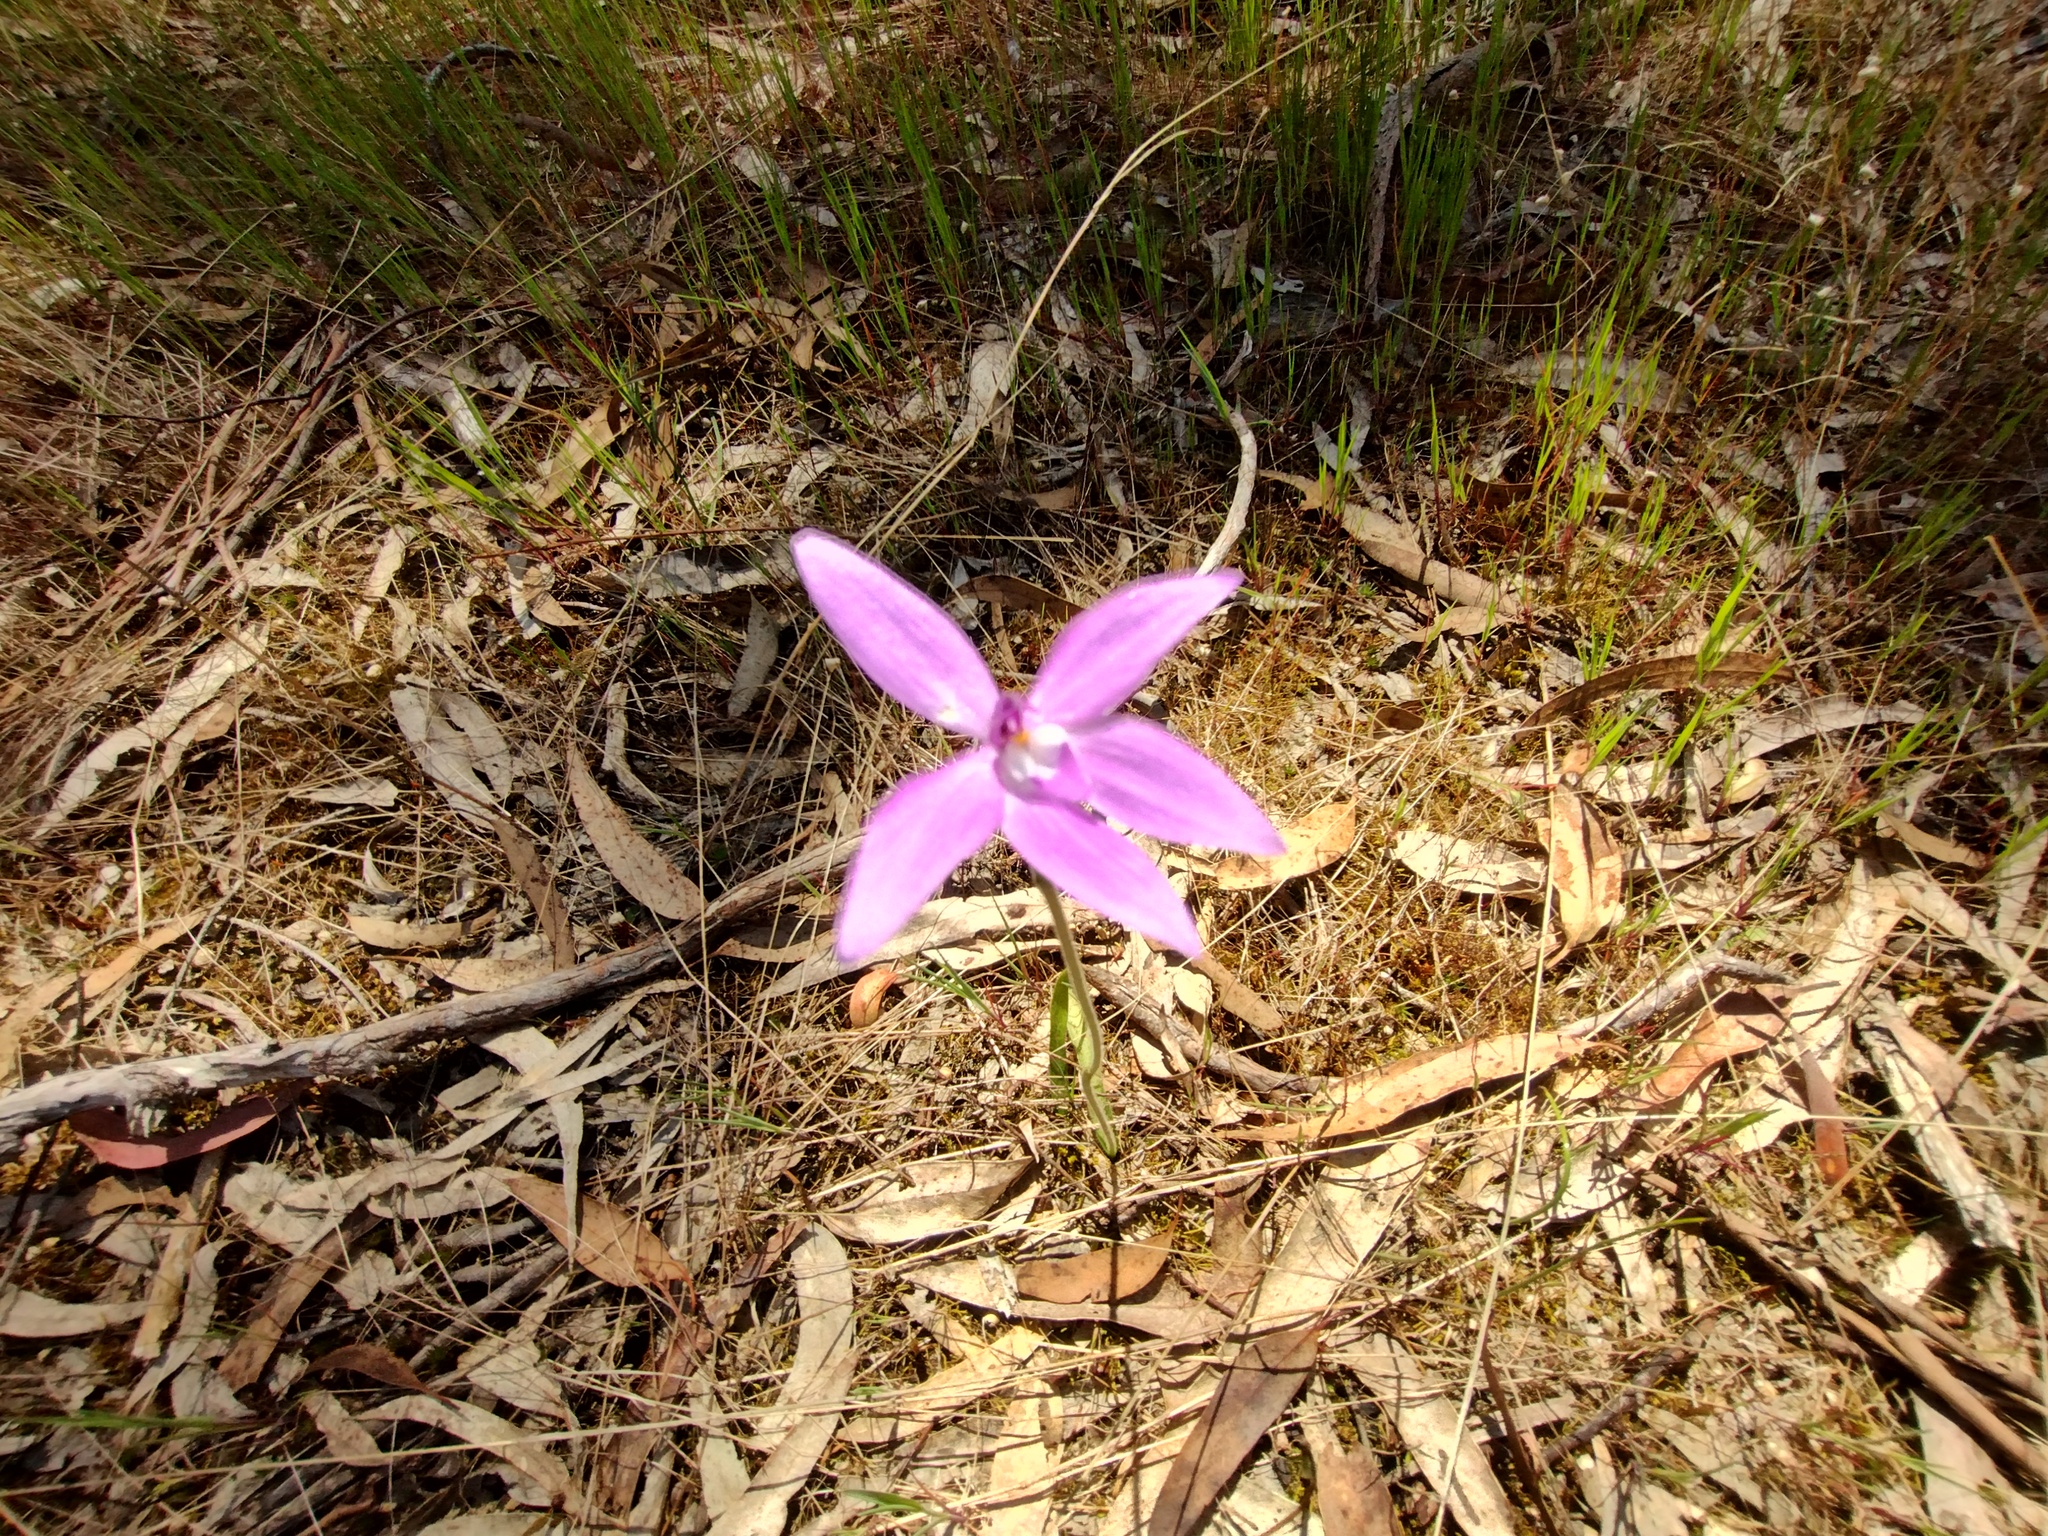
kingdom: Plantae
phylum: Tracheophyta
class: Liliopsida
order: Asparagales
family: Orchidaceae
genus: Caladenia
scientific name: Caladenia major
